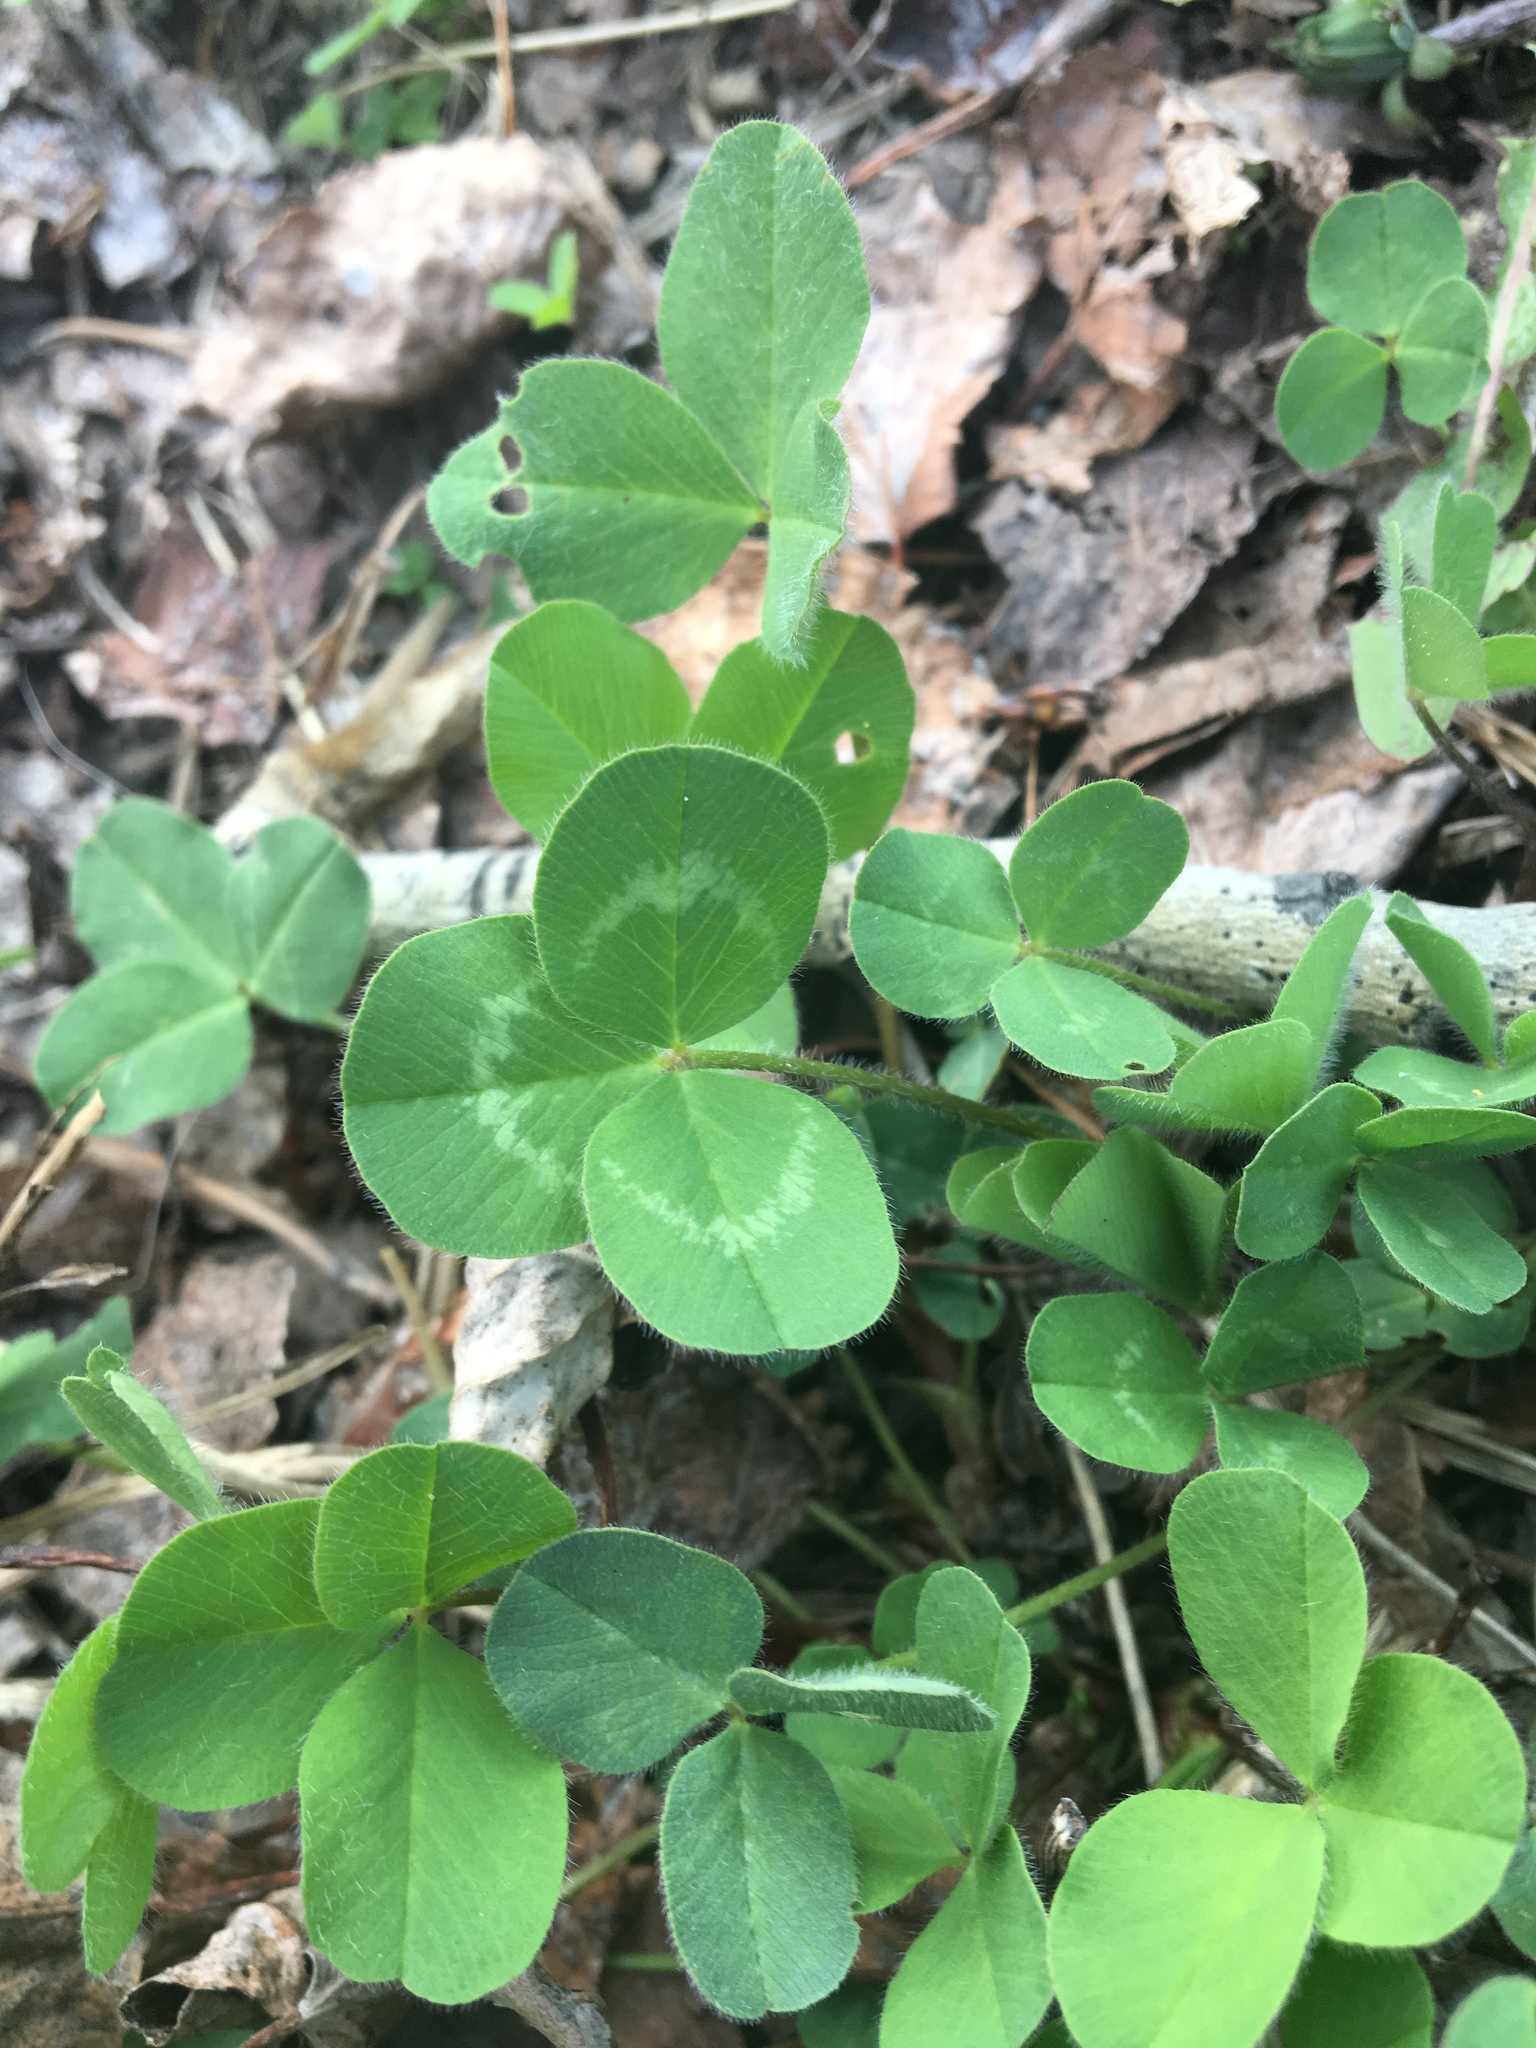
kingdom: Plantae
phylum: Tracheophyta
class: Magnoliopsida
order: Fabales
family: Fabaceae
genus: Trifolium
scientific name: Trifolium pratense
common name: Red clover
